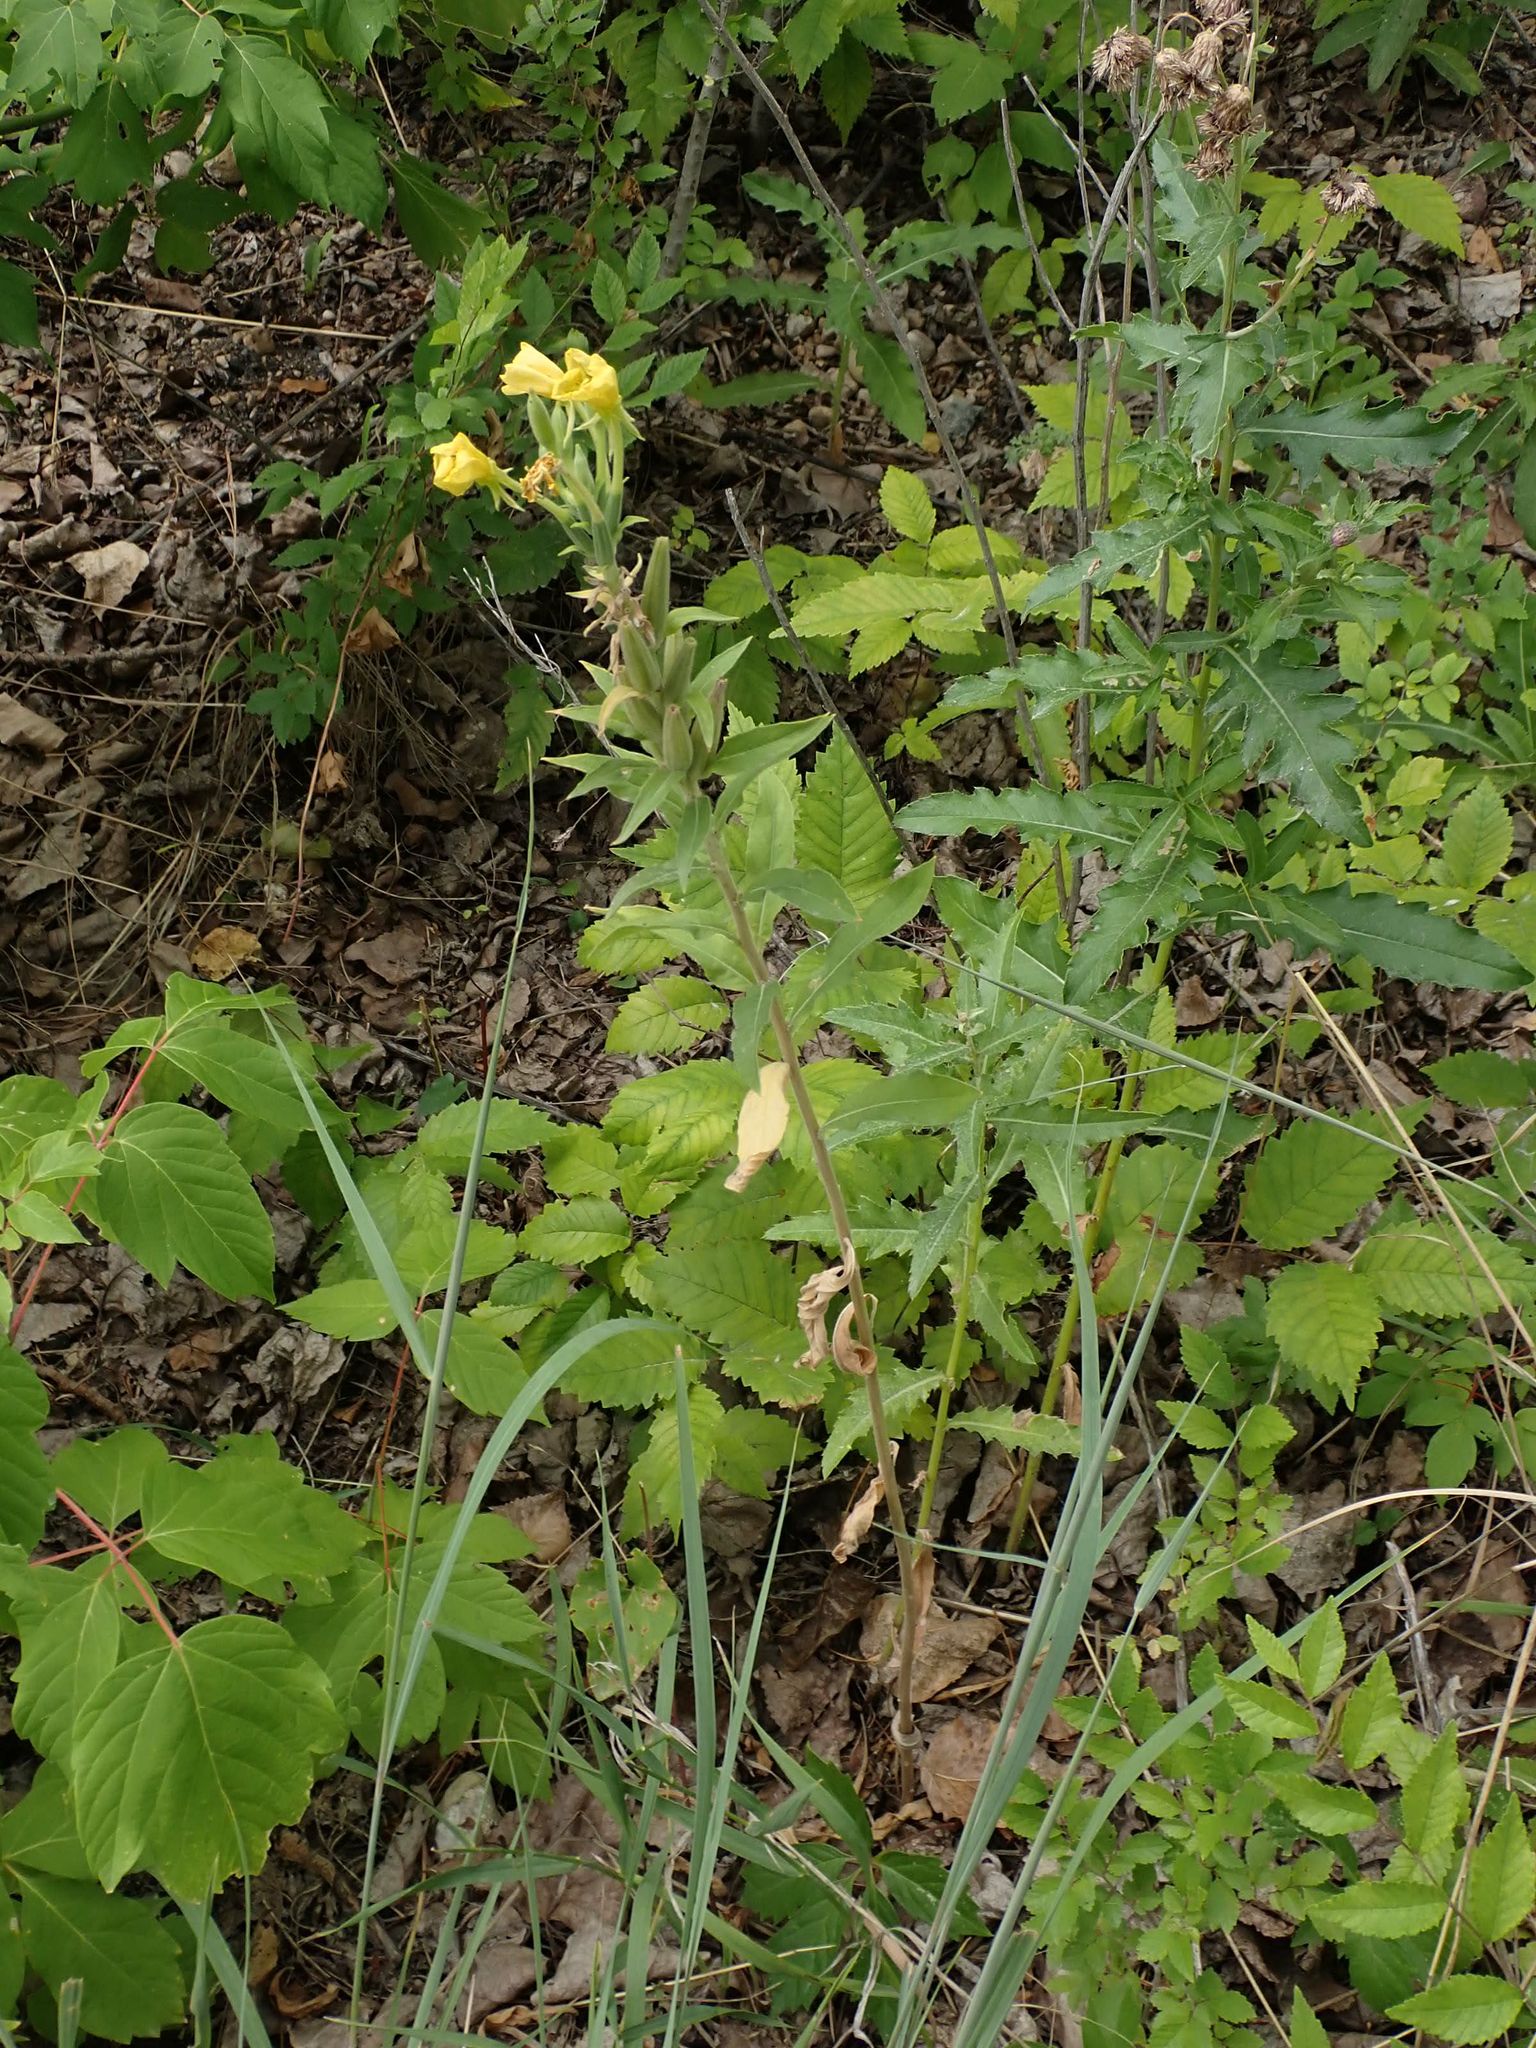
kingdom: Plantae
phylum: Tracheophyta
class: Magnoliopsida
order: Myrtales
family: Onagraceae
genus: Oenothera
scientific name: Oenothera biennis
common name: Common evening-primrose
